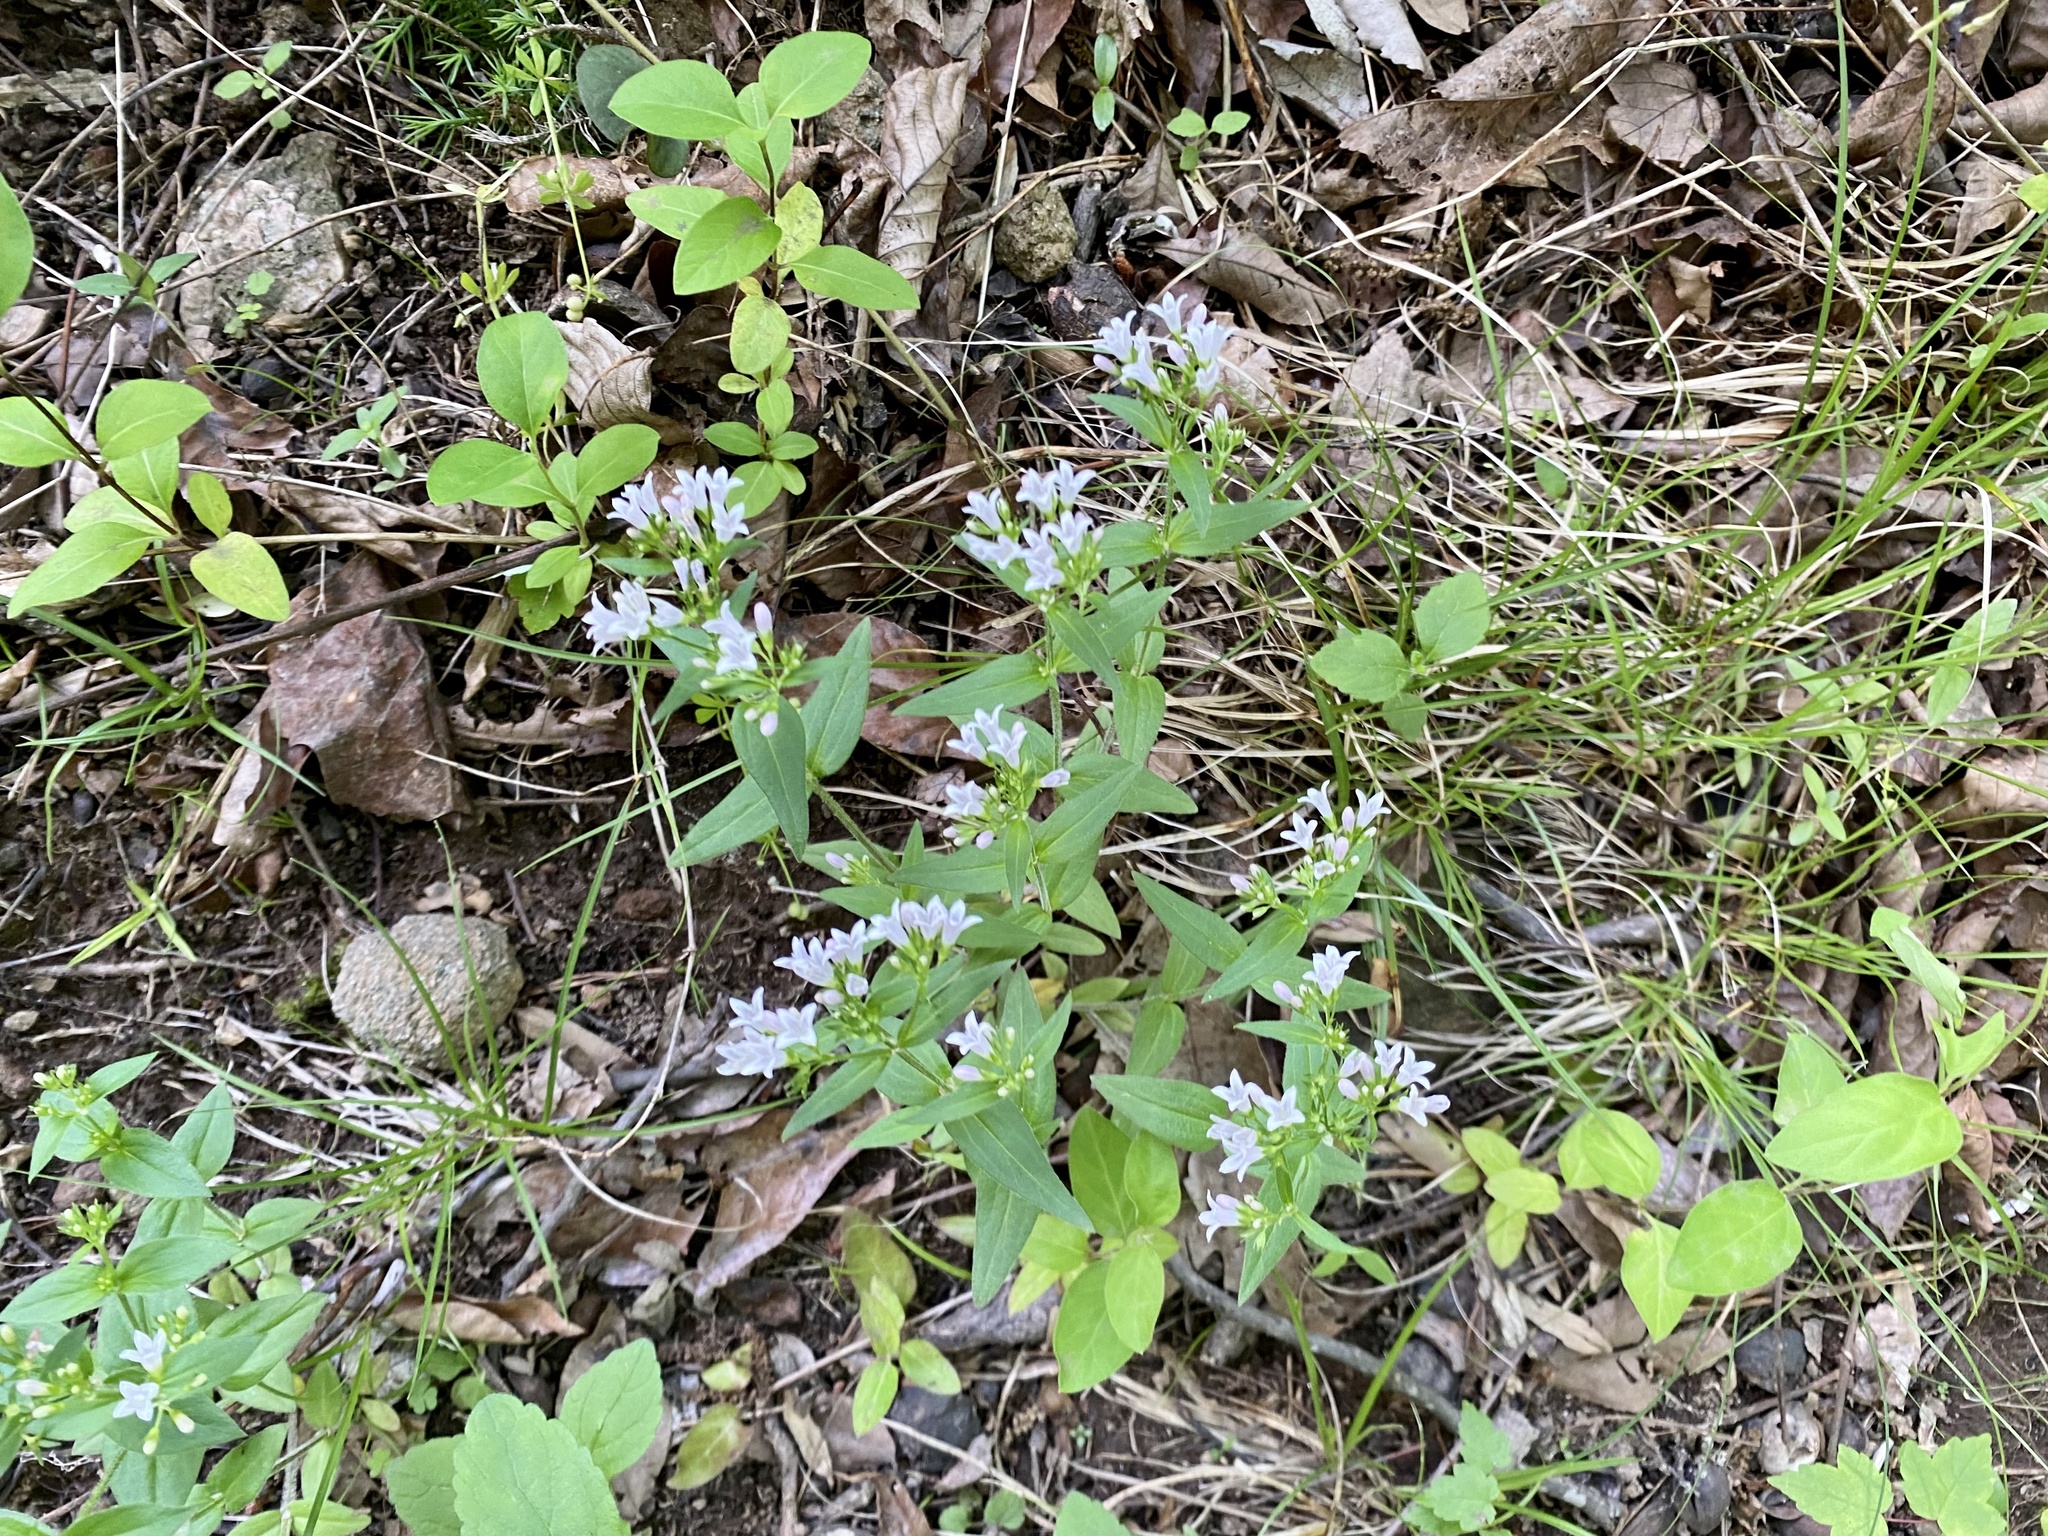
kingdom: Plantae
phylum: Tracheophyta
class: Magnoliopsida
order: Gentianales
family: Rubiaceae
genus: Houstonia
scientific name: Houstonia purpurea
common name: Summer bluet
